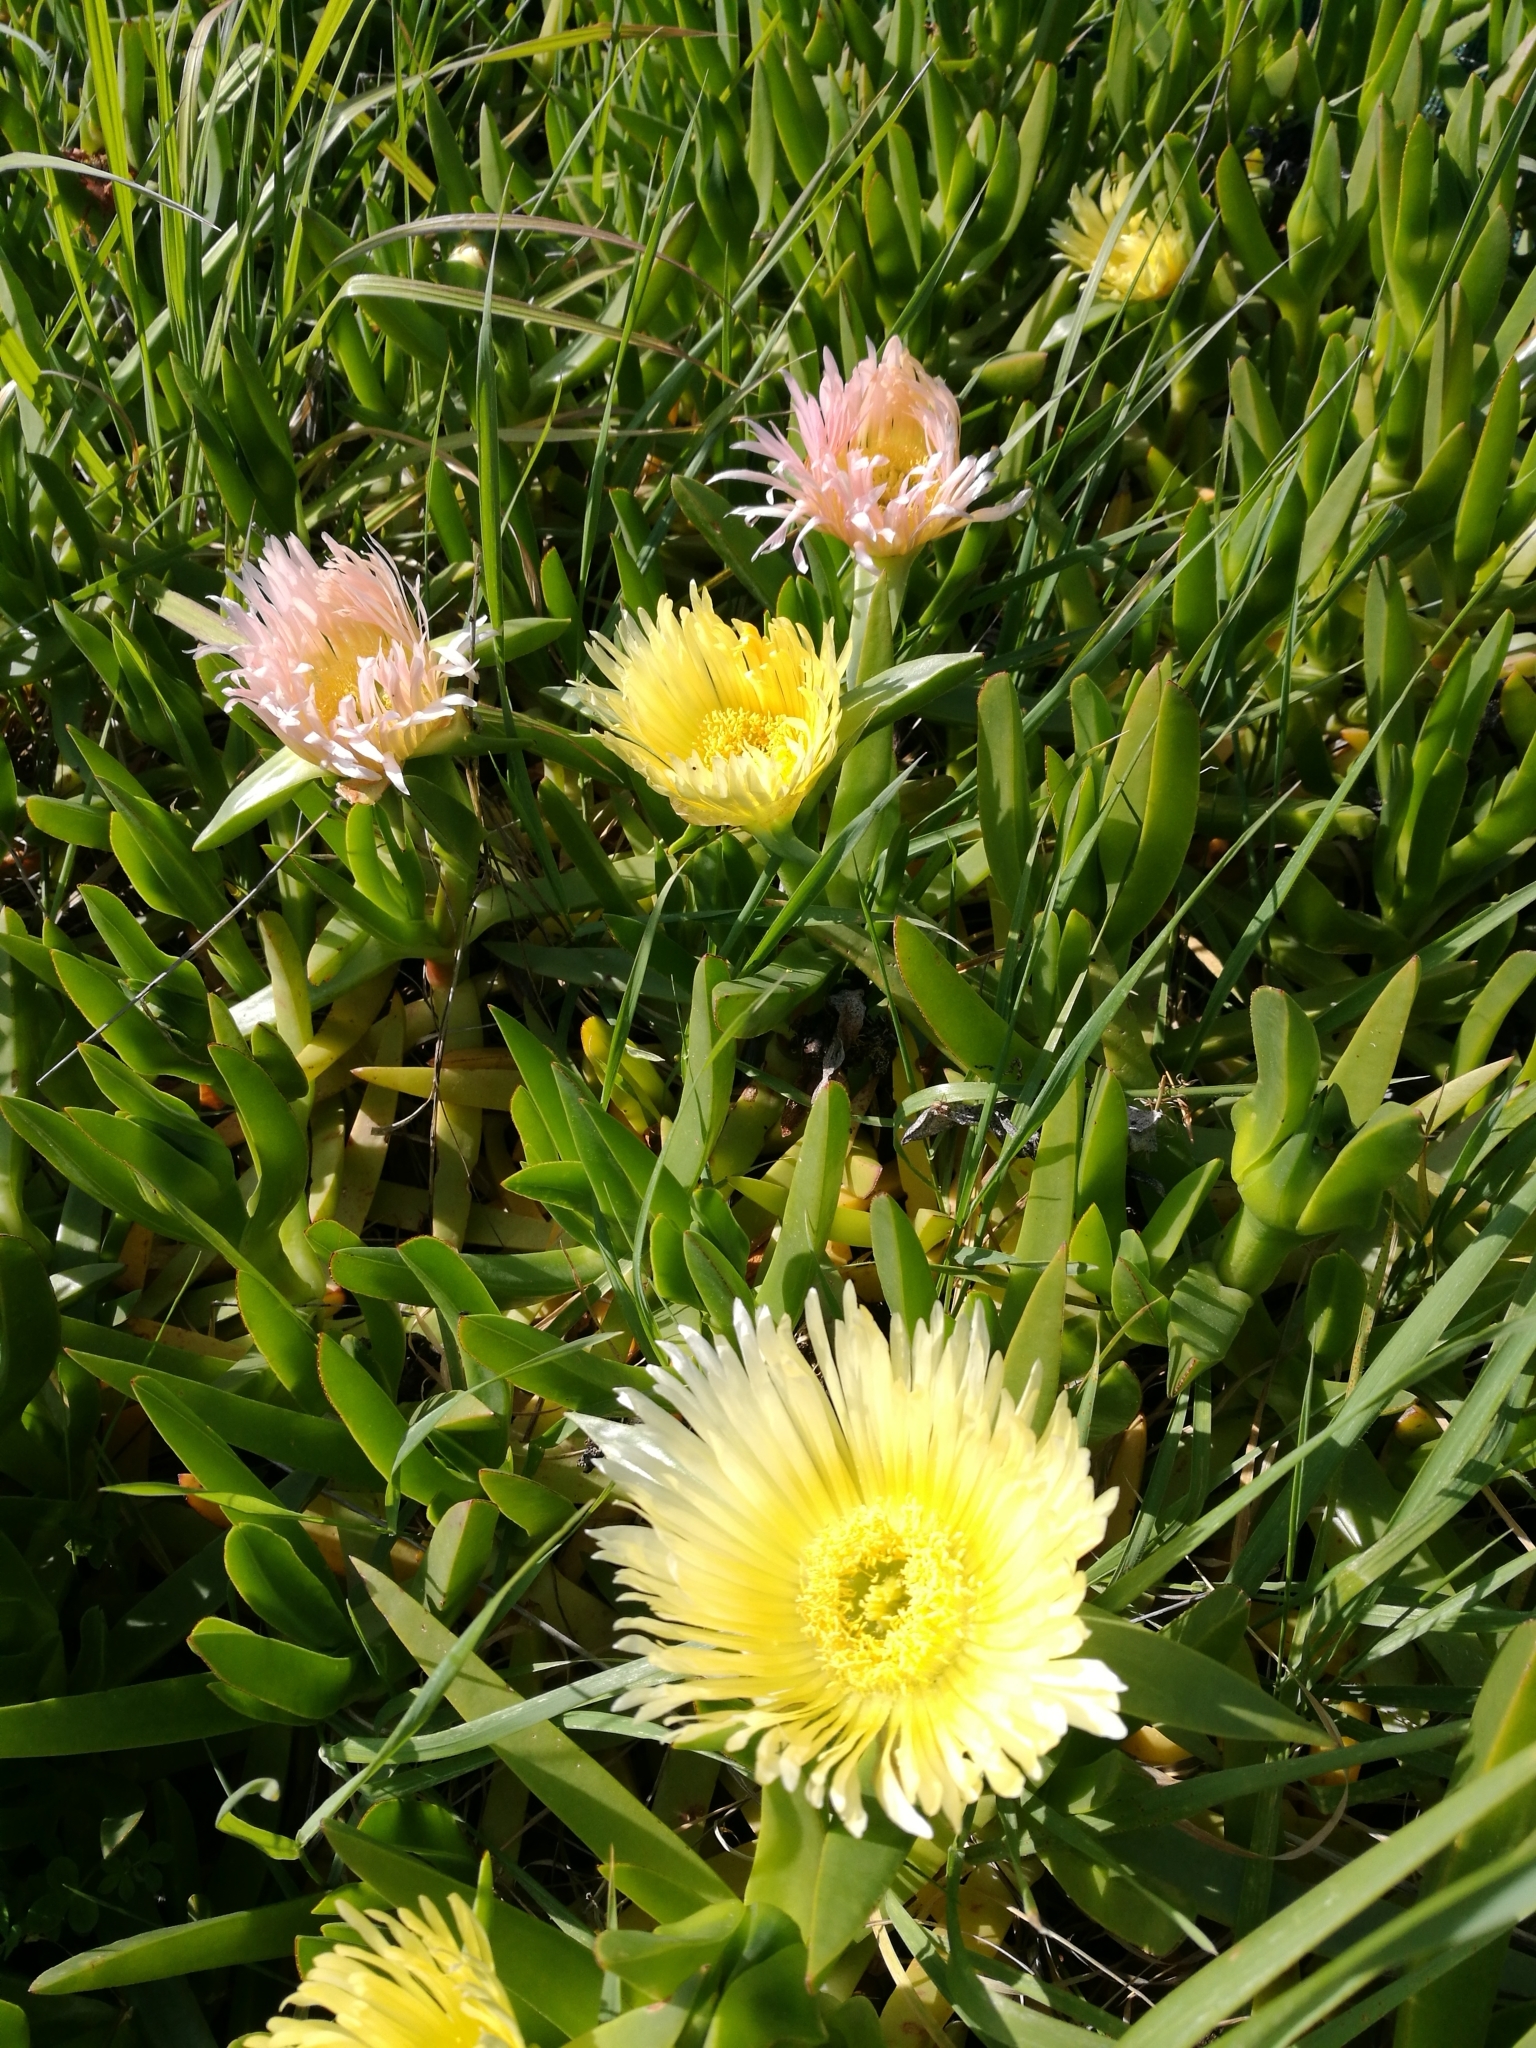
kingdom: Plantae
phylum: Tracheophyta
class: Magnoliopsida
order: Caryophyllales
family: Aizoaceae
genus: Carpobrotus
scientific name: Carpobrotus edulis
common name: Hottentot-fig
